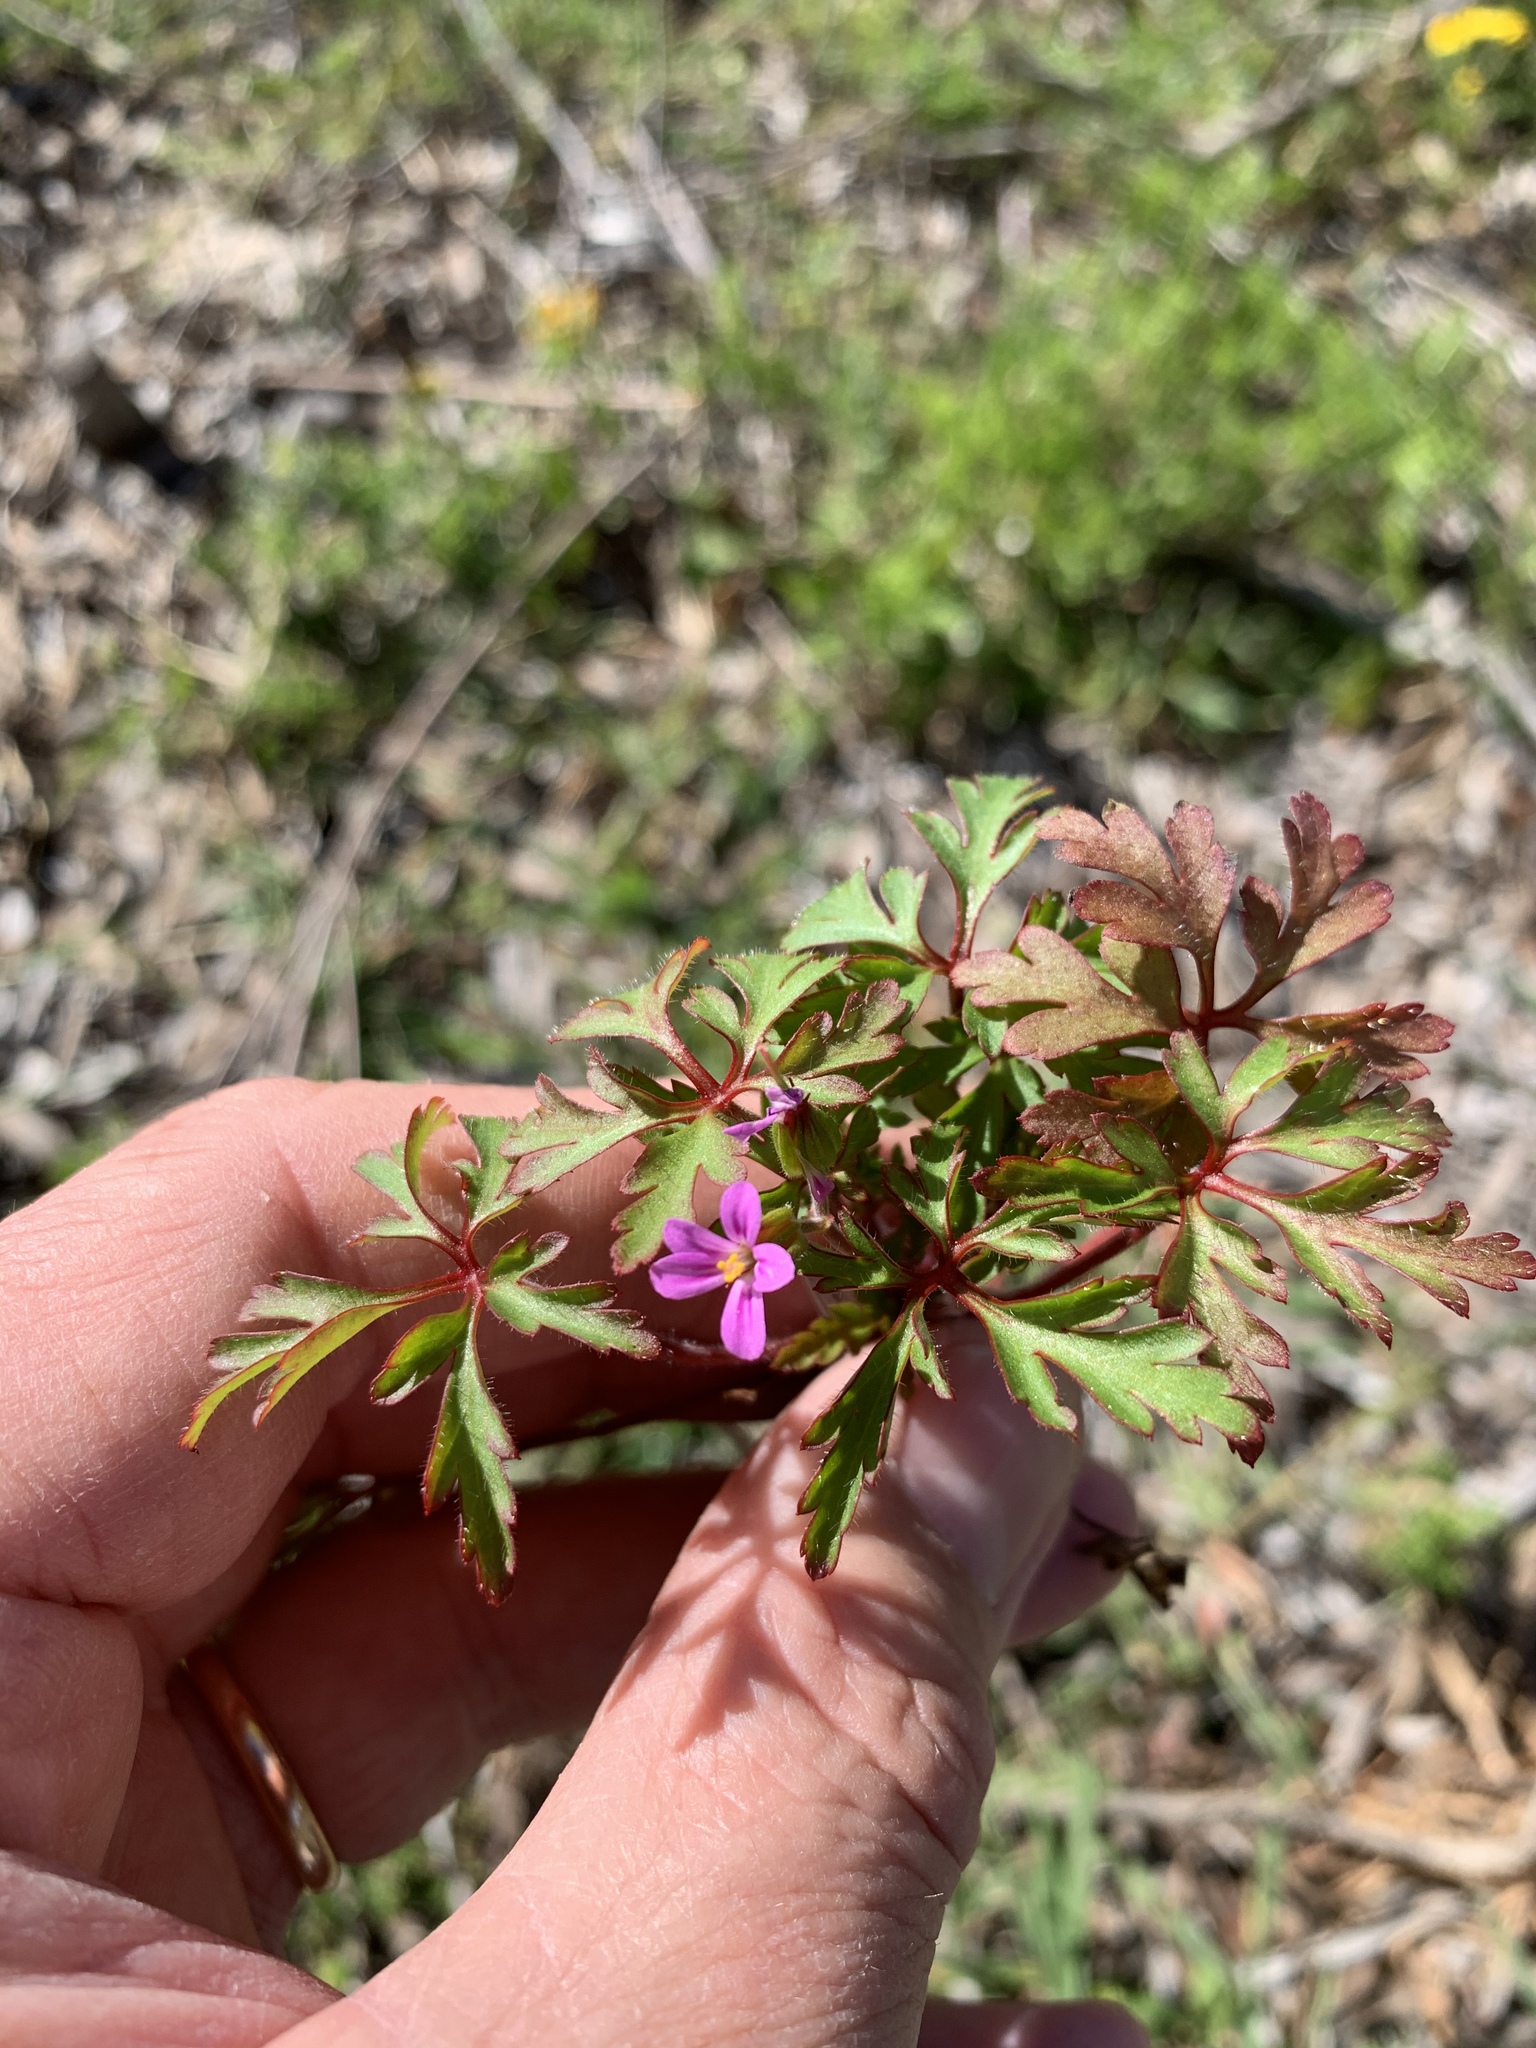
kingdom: Plantae
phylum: Tracheophyta
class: Magnoliopsida
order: Geraniales
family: Geraniaceae
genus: Geranium
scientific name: Geranium purpureum
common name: Little-robin
